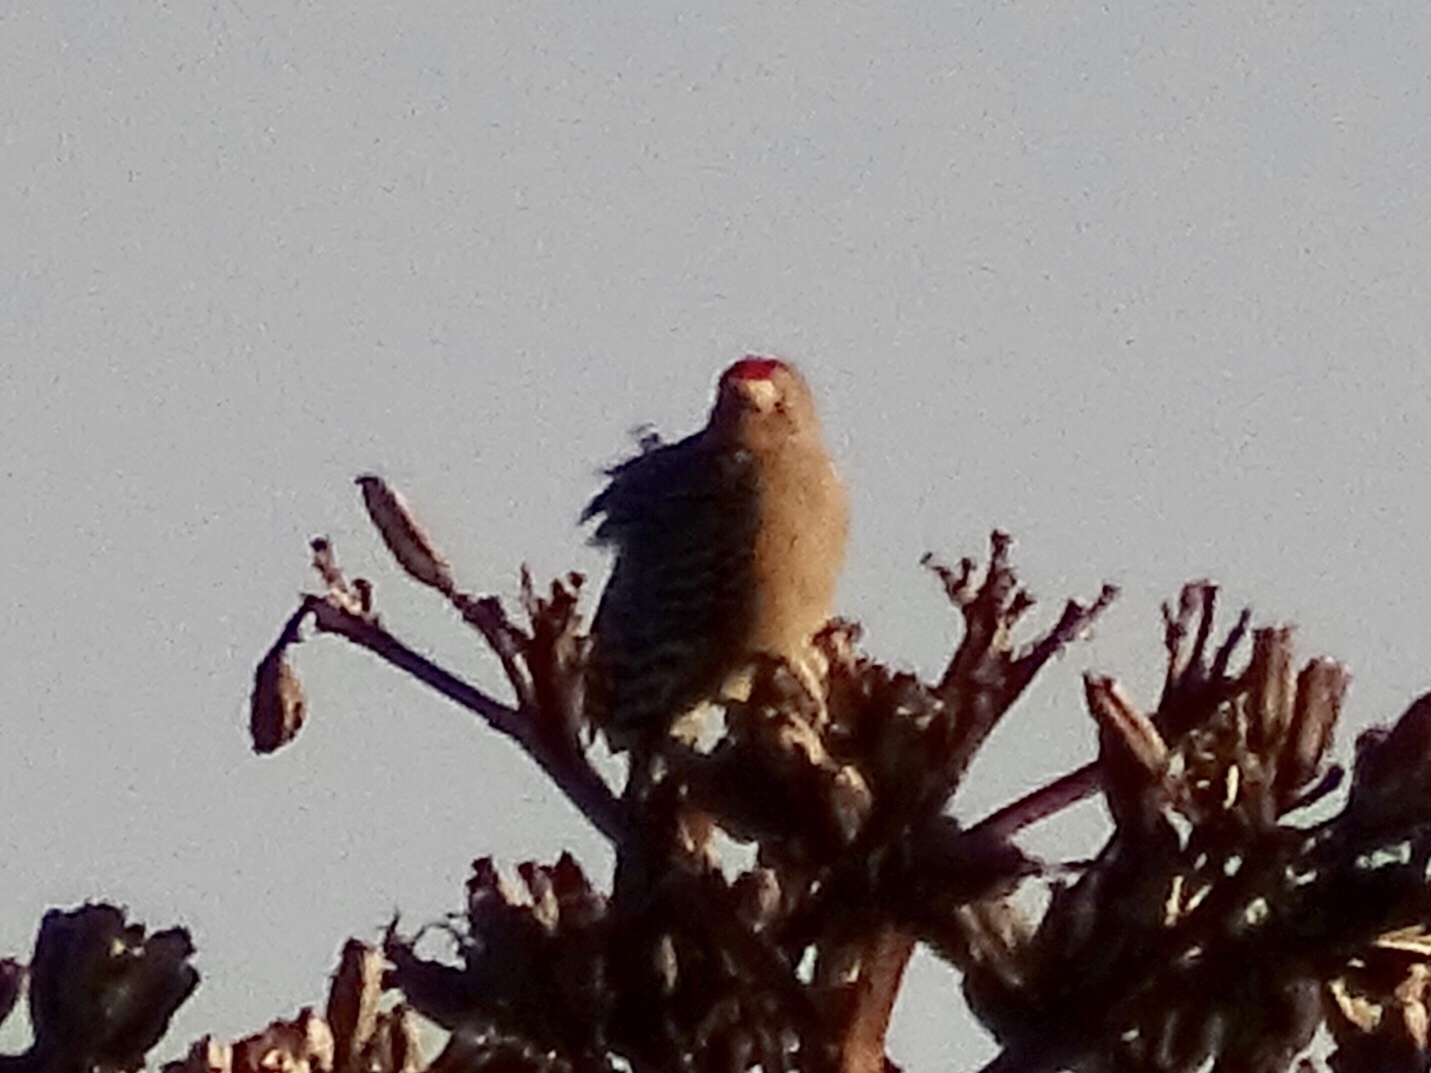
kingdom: Animalia
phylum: Chordata
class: Aves
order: Piciformes
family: Picidae
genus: Melanerpes
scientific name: Melanerpes uropygialis
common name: Gila woodpecker
